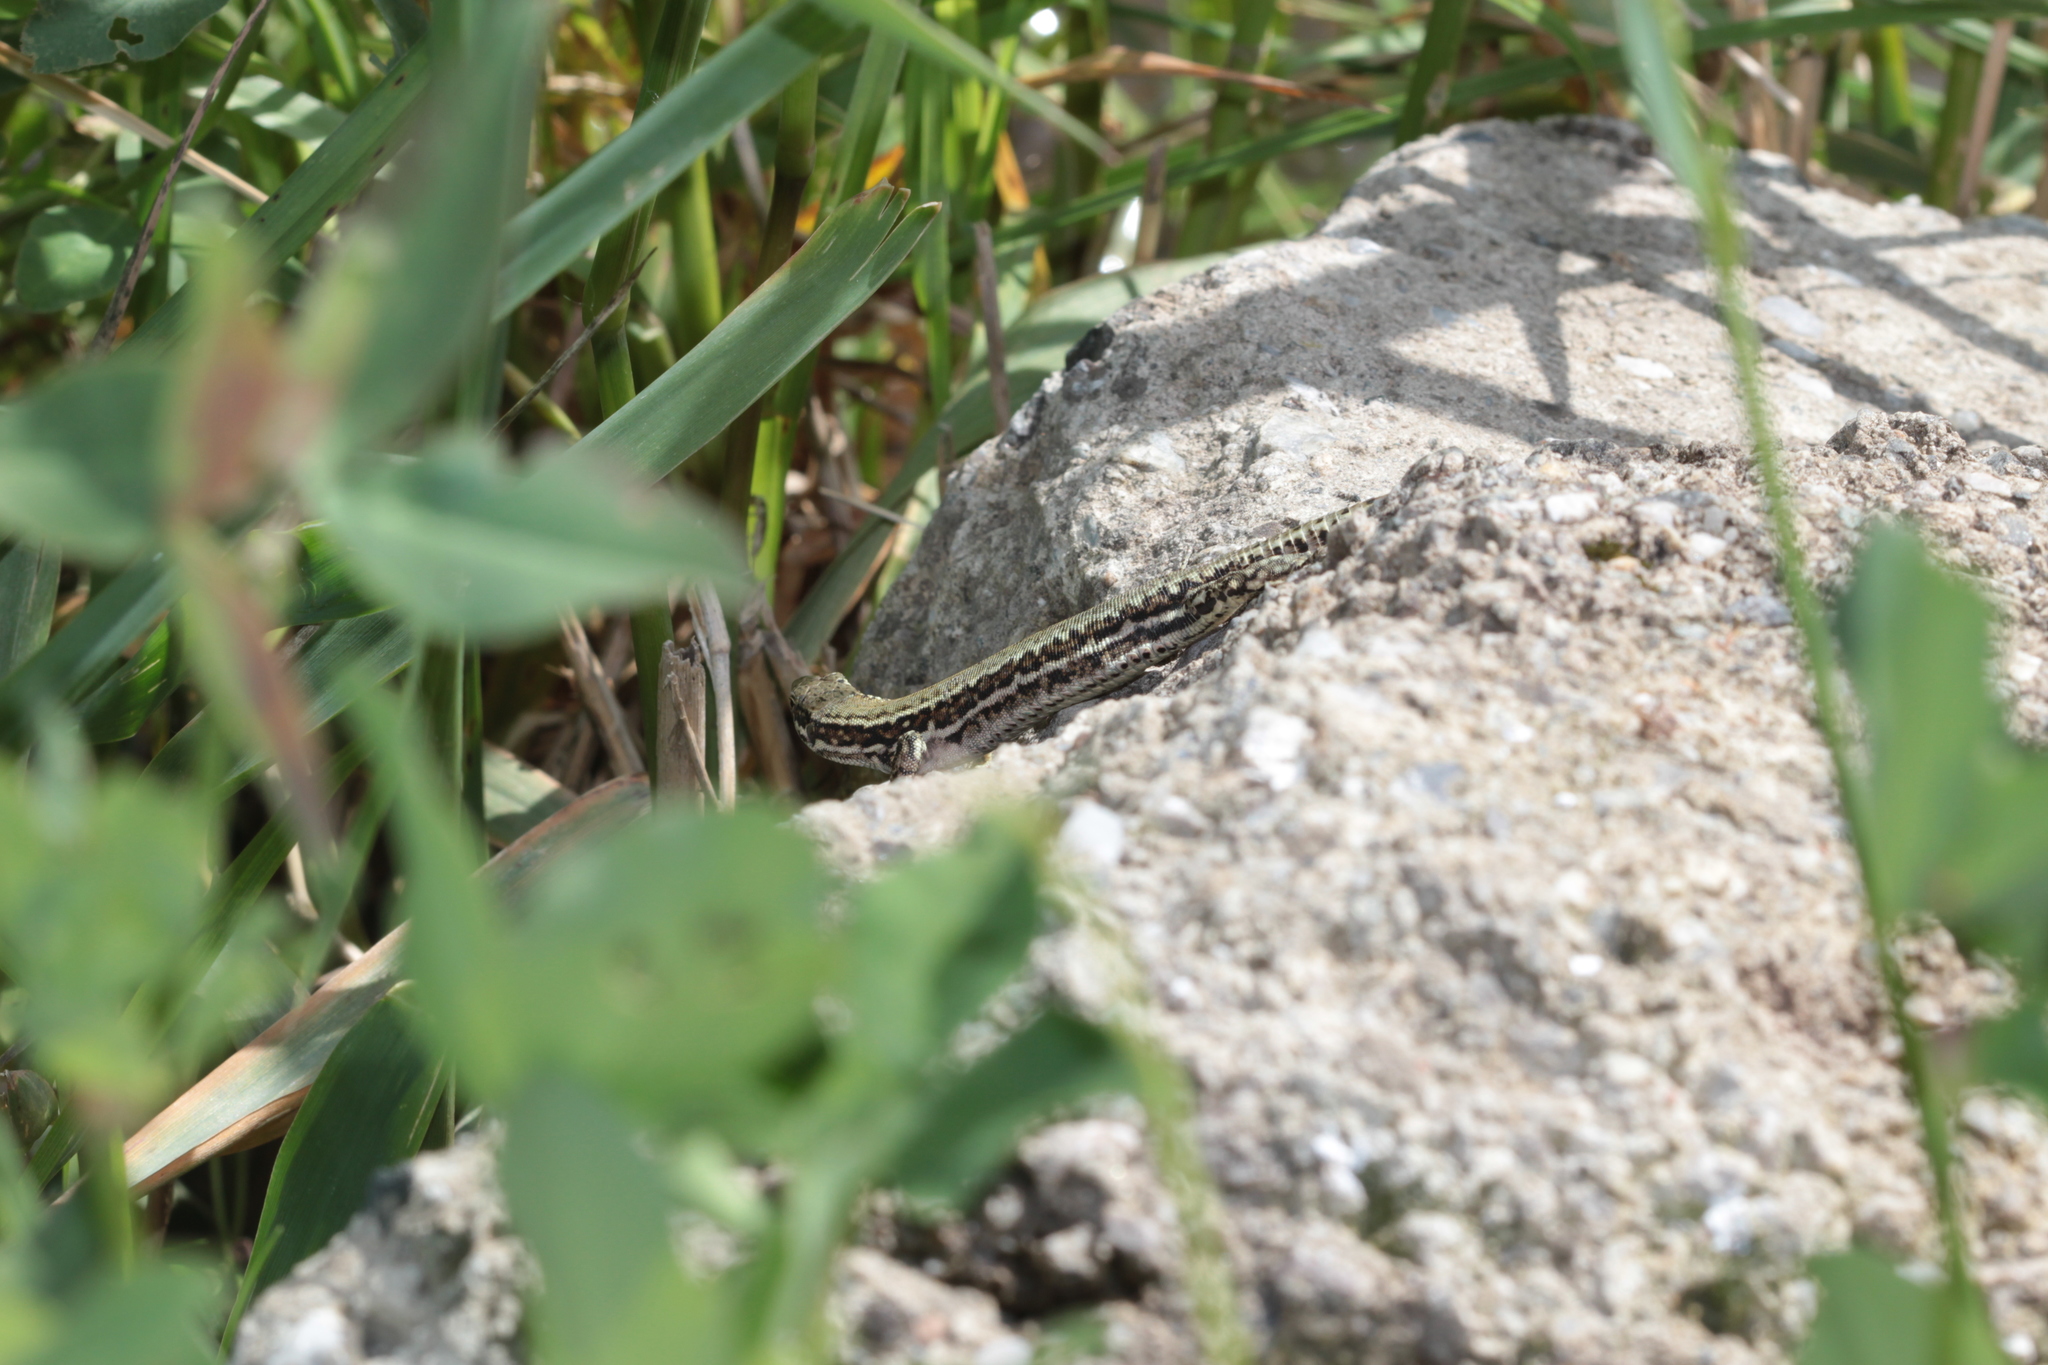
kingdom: Animalia
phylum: Chordata
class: Squamata
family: Lacertidae
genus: Podarcis
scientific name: Podarcis muralis
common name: Common wall lizard
